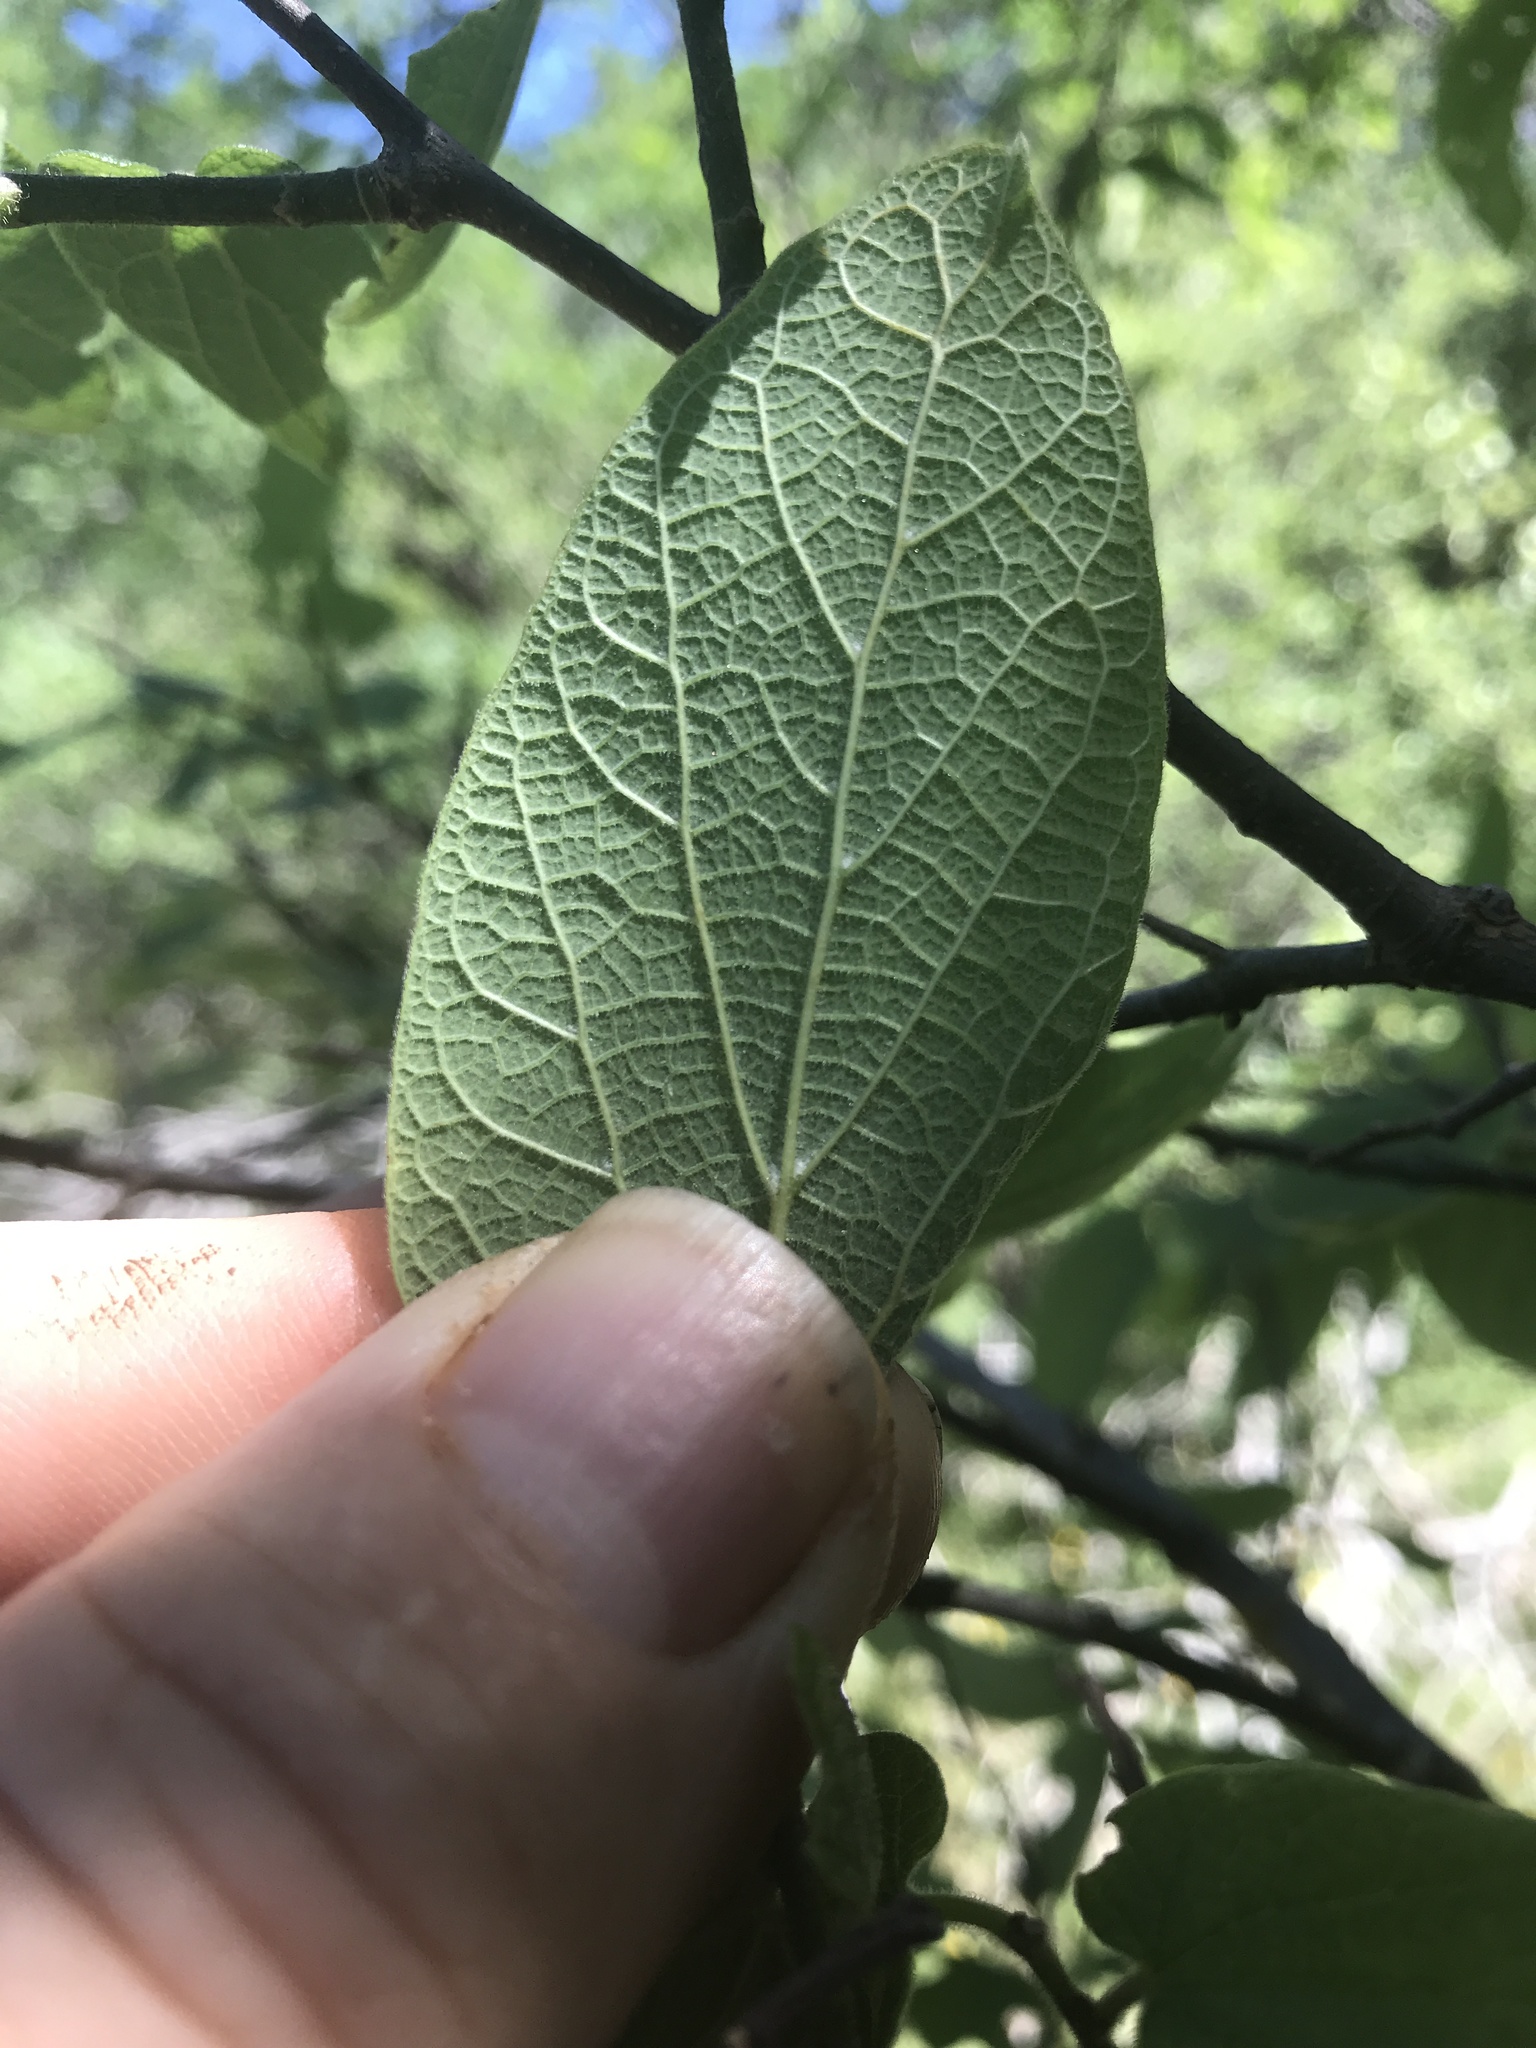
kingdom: Plantae
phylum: Tracheophyta
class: Magnoliopsida
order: Rosales
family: Cannabaceae
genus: Celtis
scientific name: Celtis reticulata
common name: Netleaf hackberry
